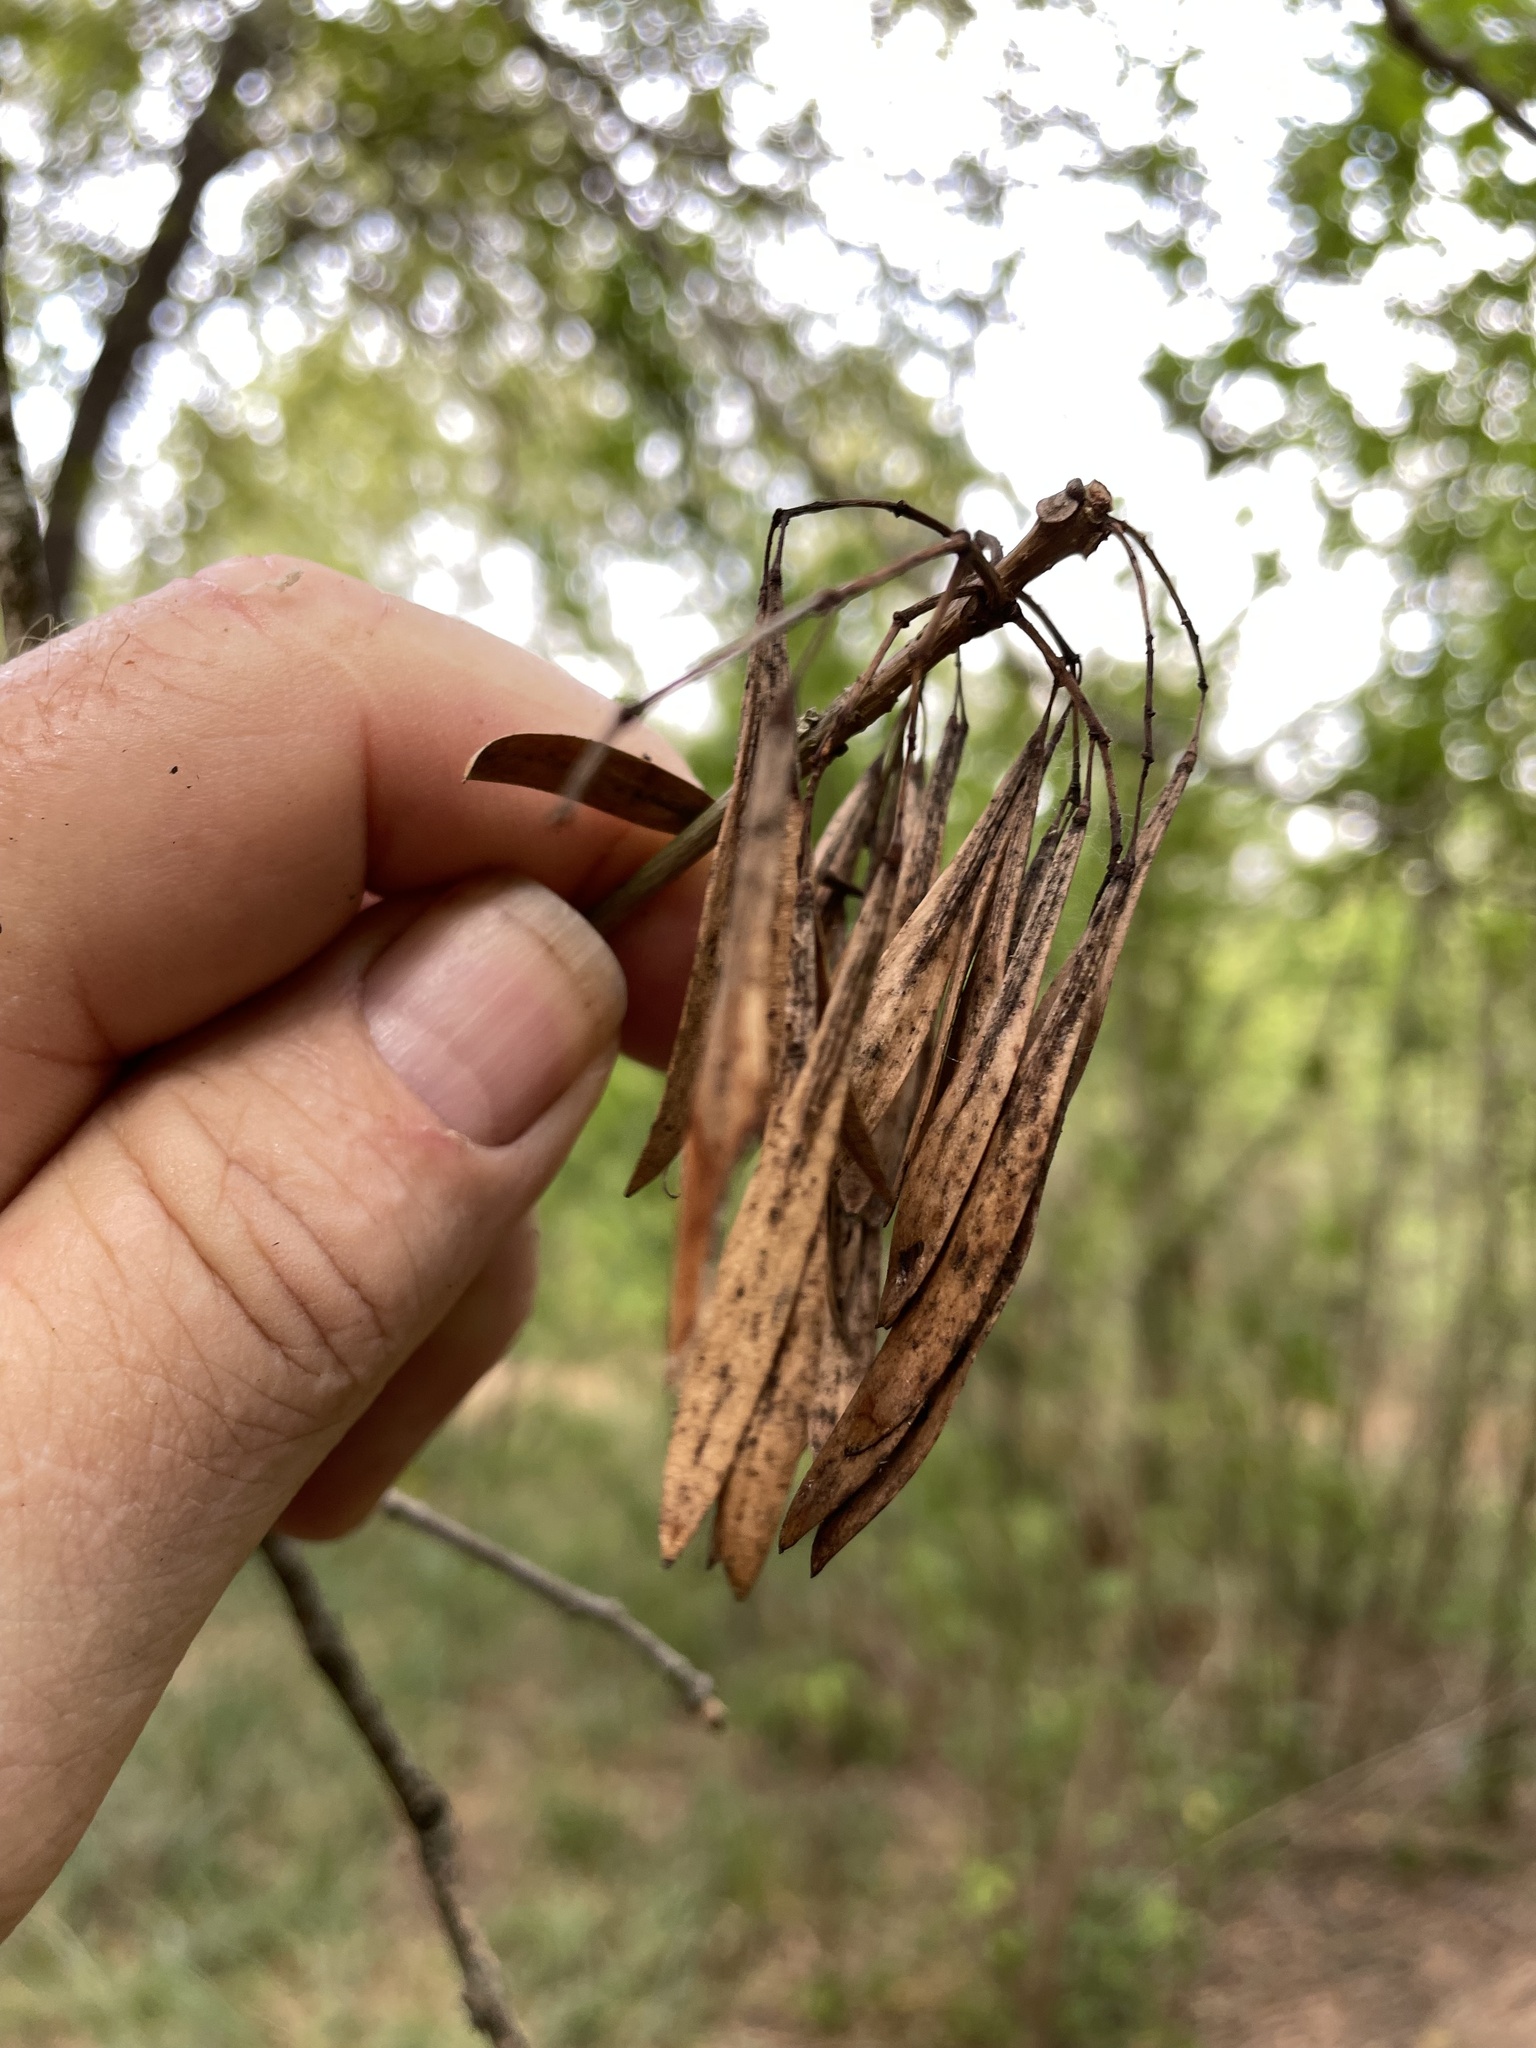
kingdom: Plantae
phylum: Tracheophyta
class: Magnoliopsida
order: Lamiales
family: Oleaceae
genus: Fraxinus
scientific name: Fraxinus pennsylvanica
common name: Green ash
